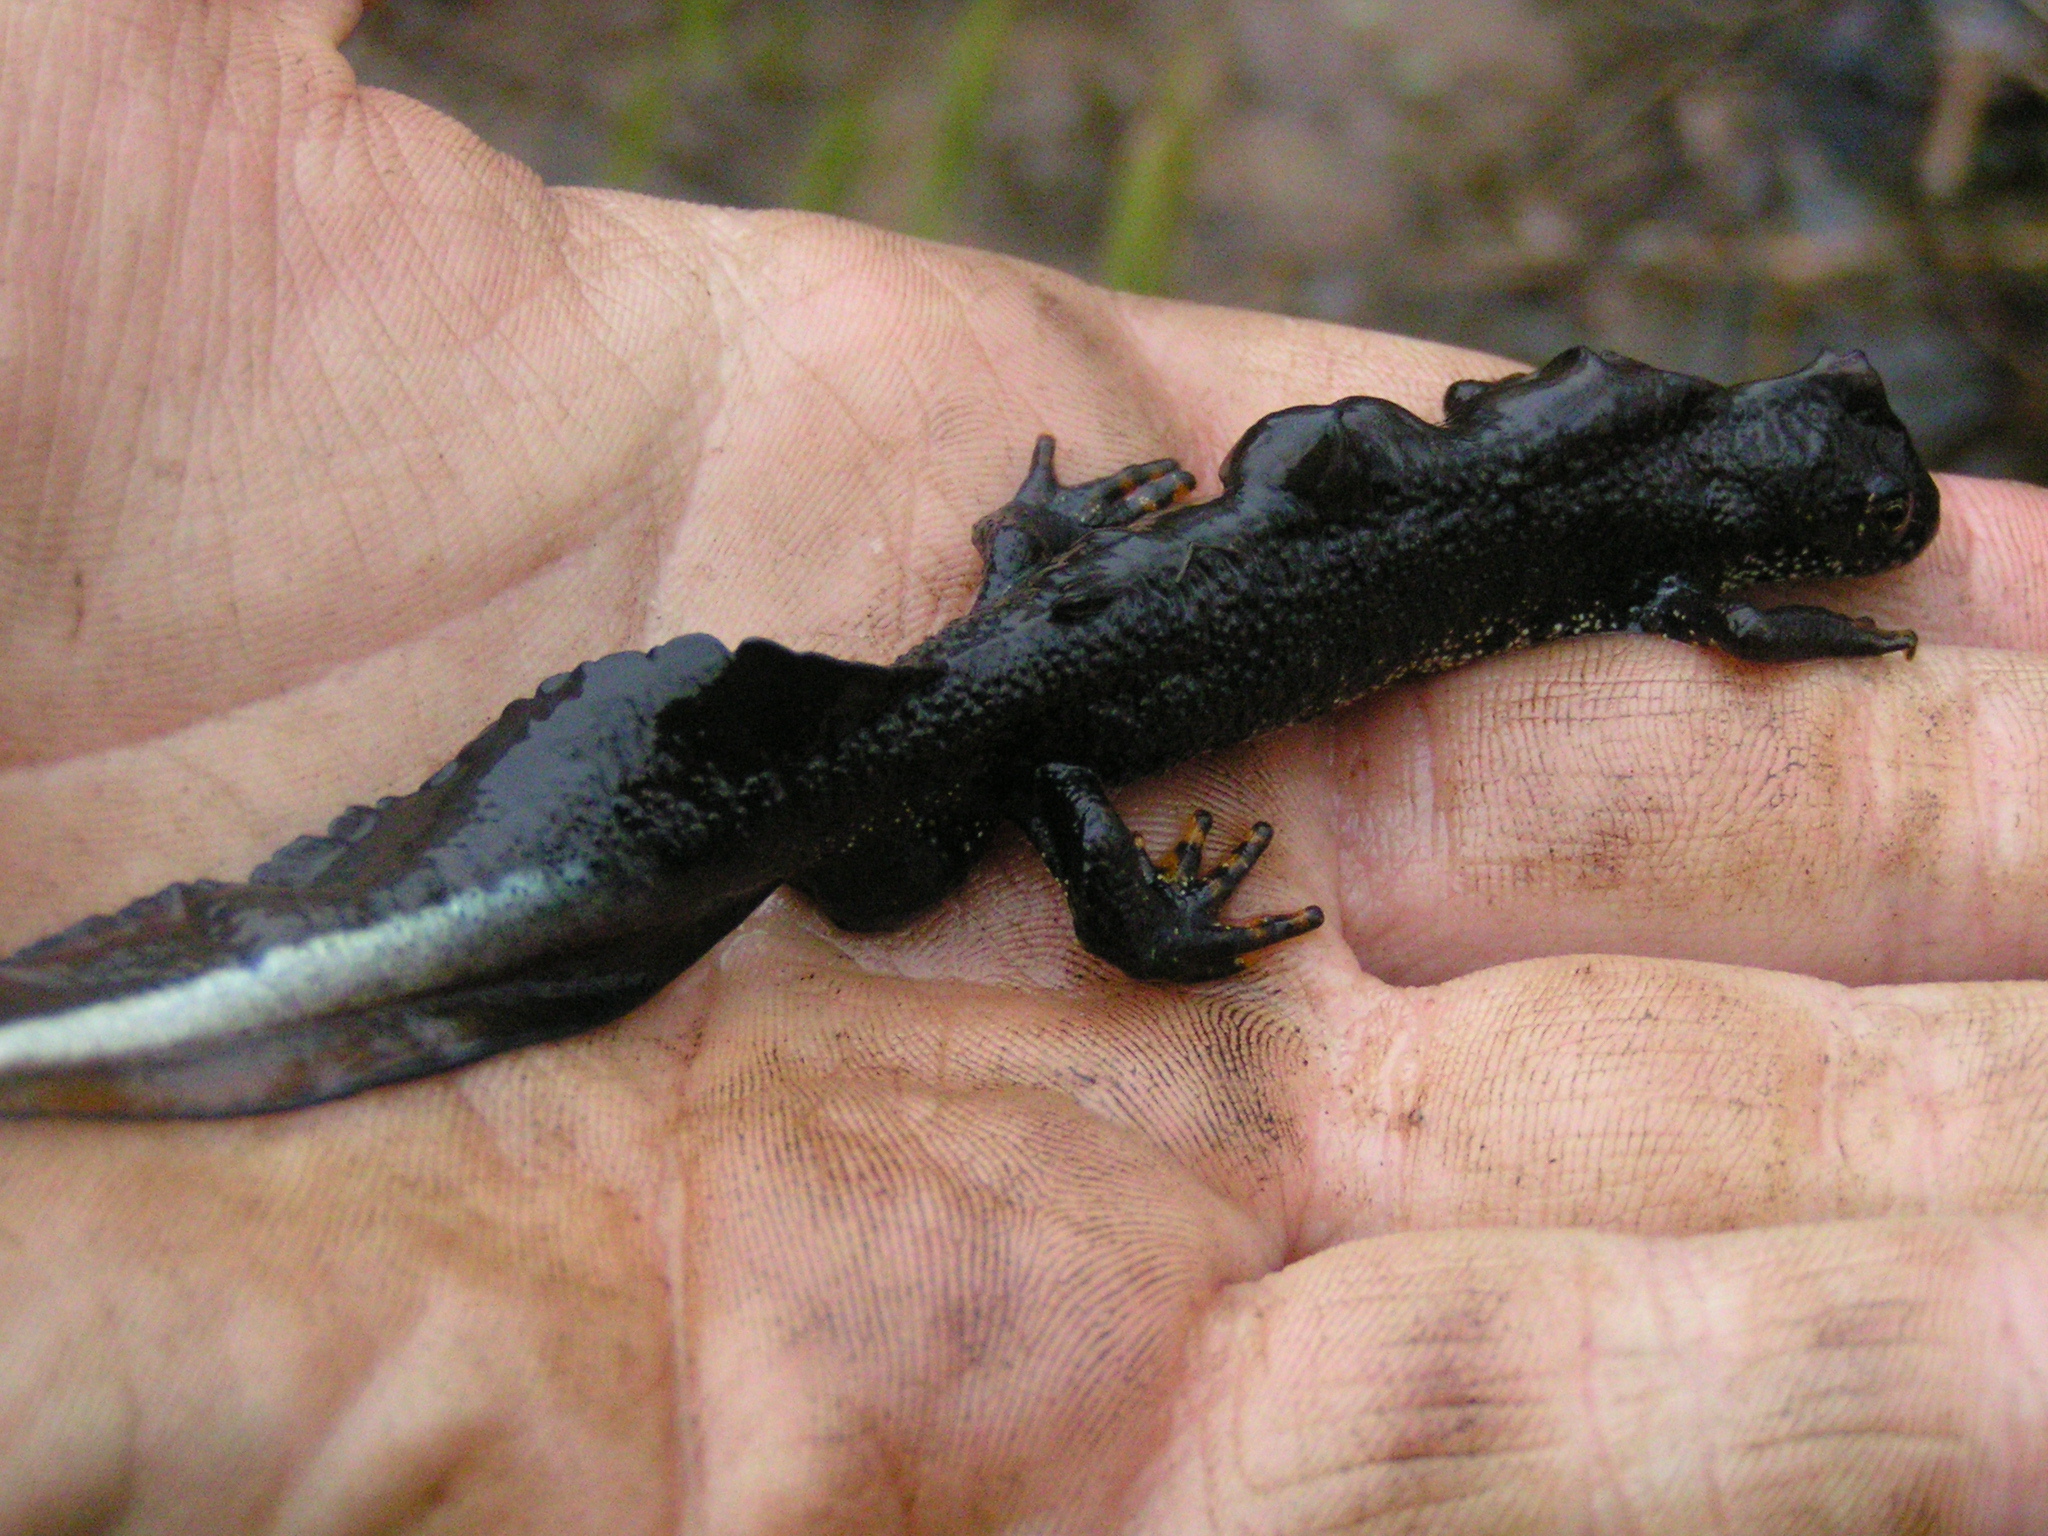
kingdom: Animalia
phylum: Chordata
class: Amphibia
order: Caudata
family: Salamandridae
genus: Triturus
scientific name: Triturus cristatus
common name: Crested newt
